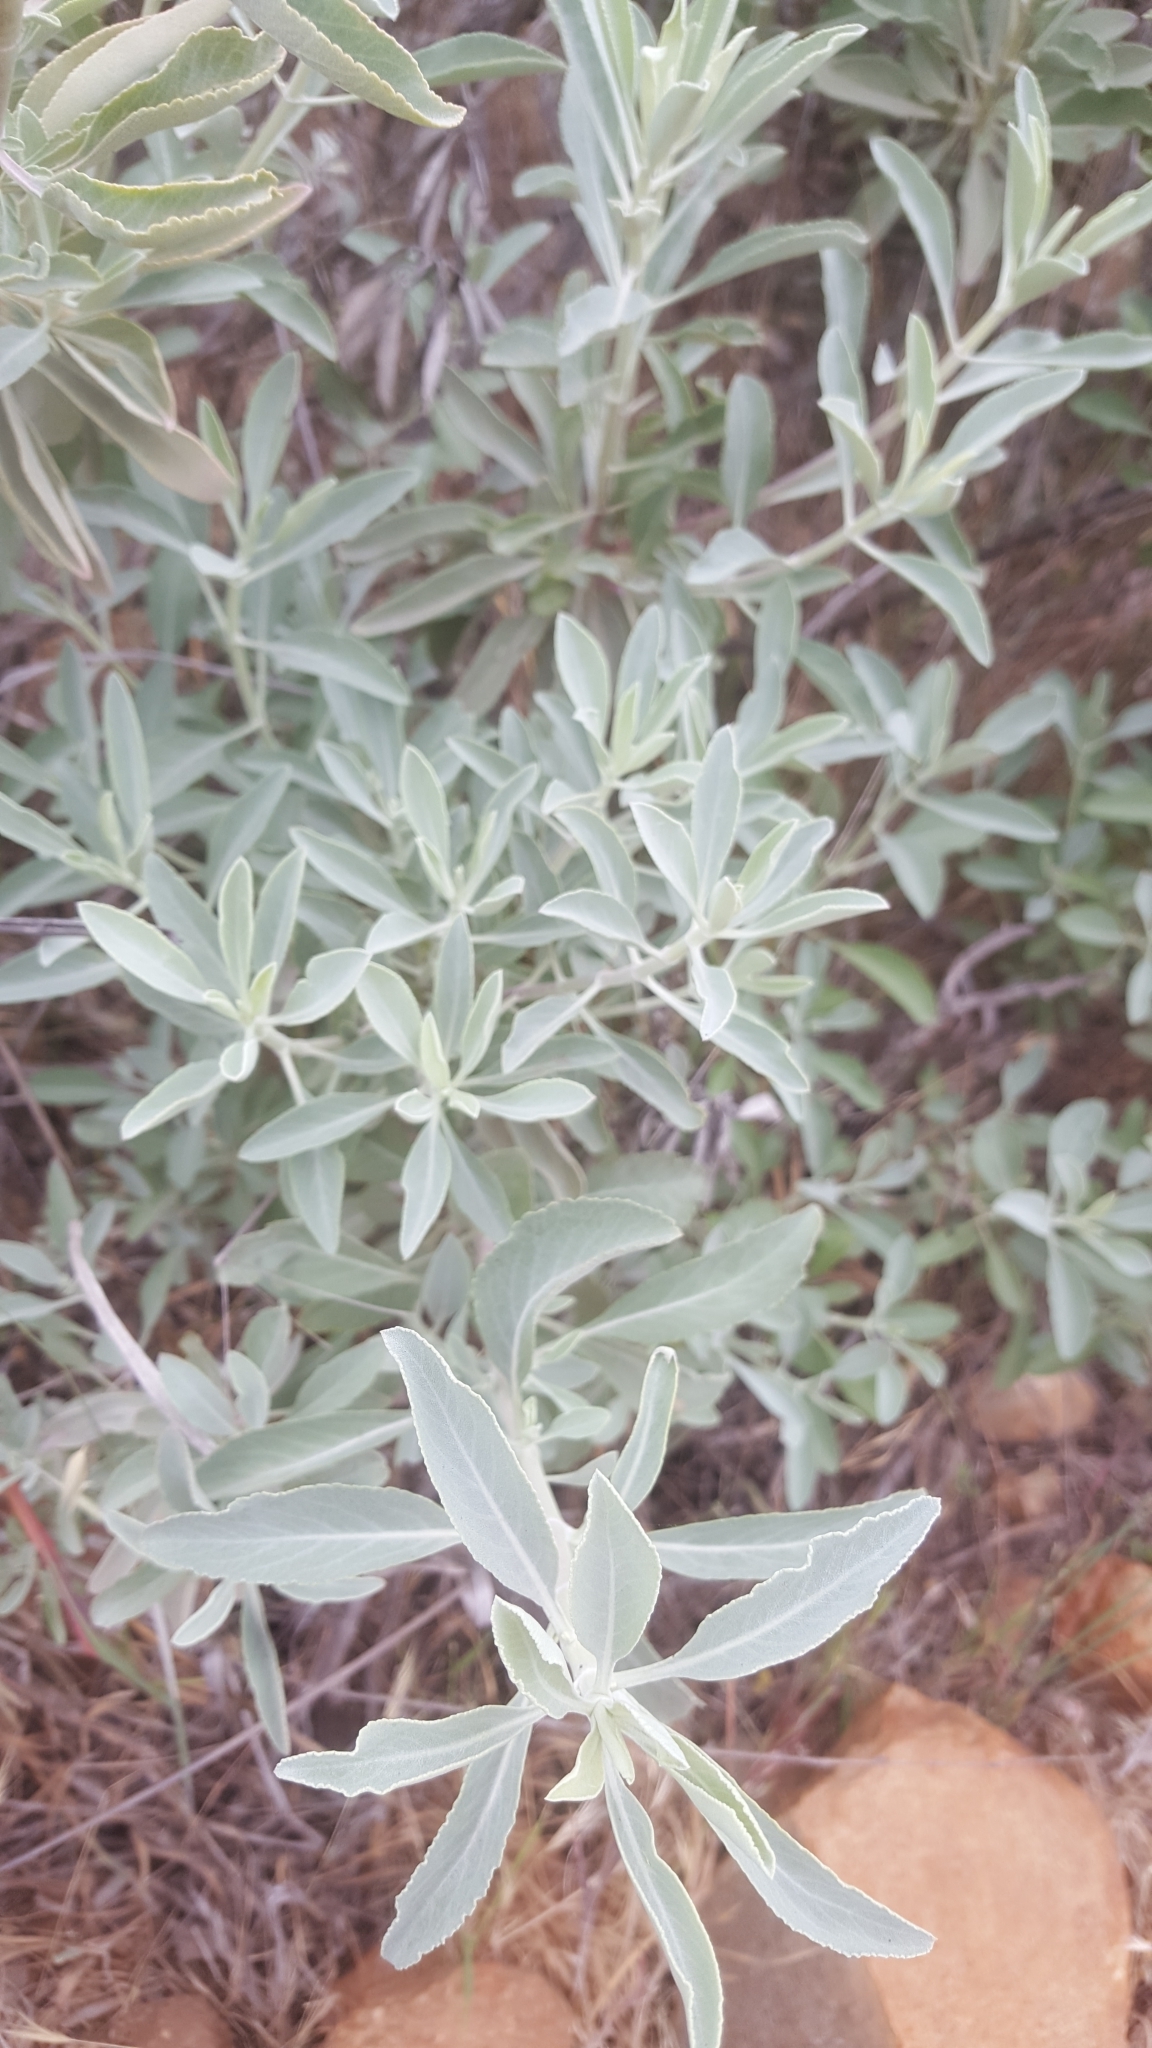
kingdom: Plantae
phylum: Tracheophyta
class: Magnoliopsida
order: Lamiales
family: Lamiaceae
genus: Salvia
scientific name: Salvia apiana
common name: White sage
